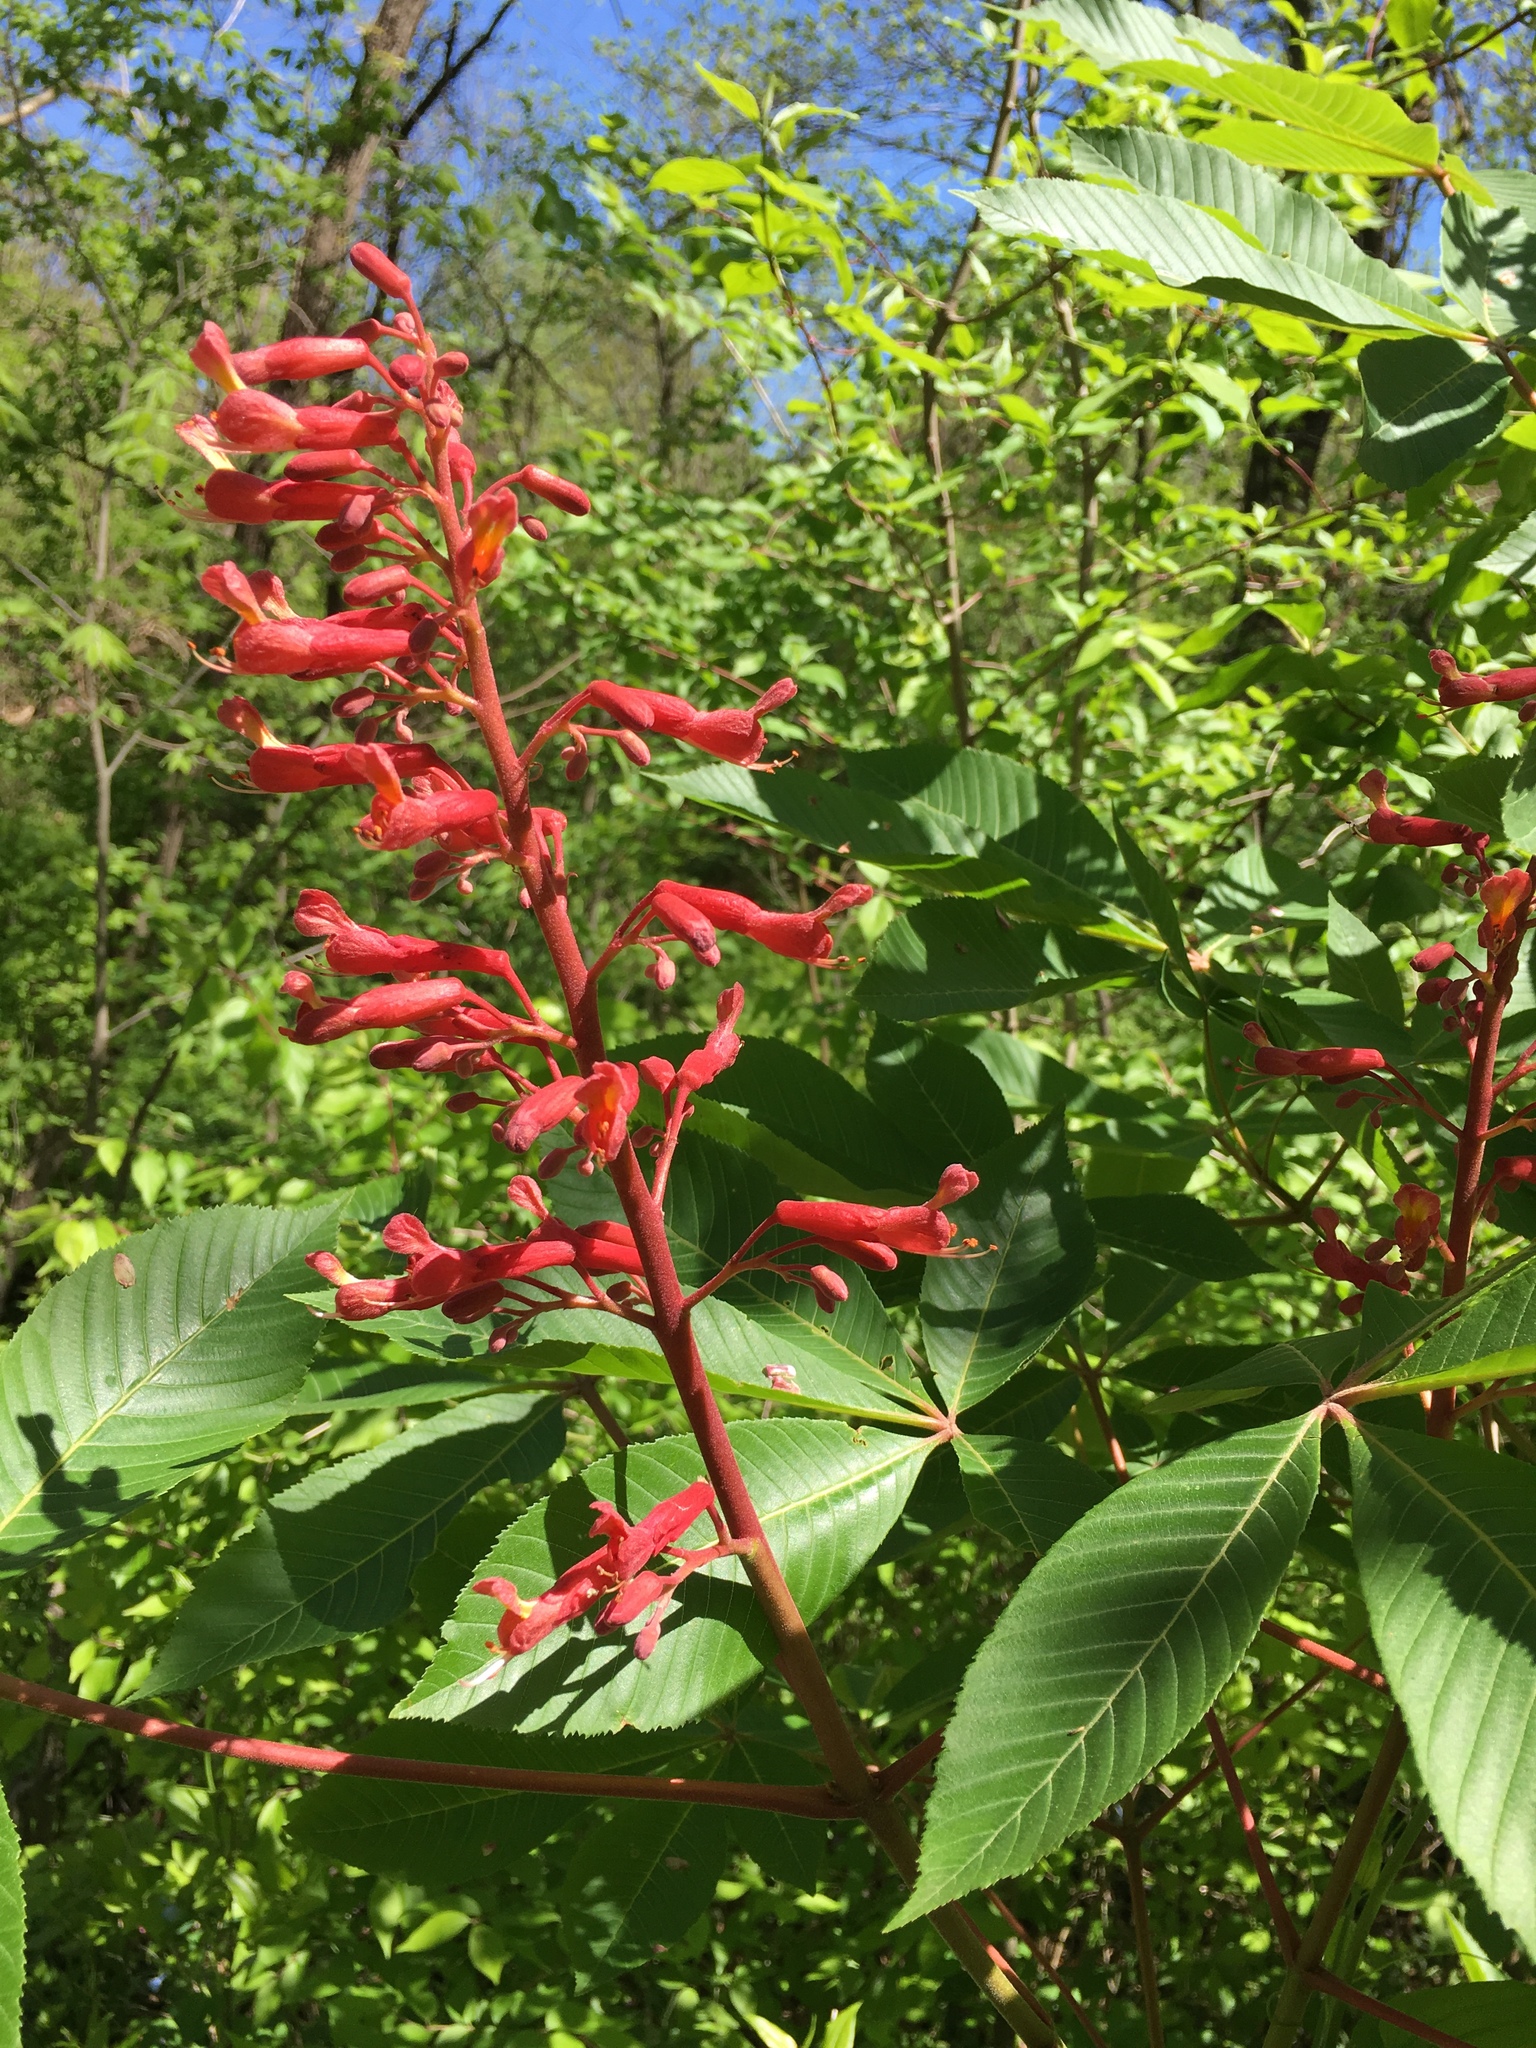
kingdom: Plantae
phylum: Tracheophyta
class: Magnoliopsida
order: Sapindales
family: Sapindaceae
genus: Aesculus
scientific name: Aesculus pavia
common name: Red buckeye
